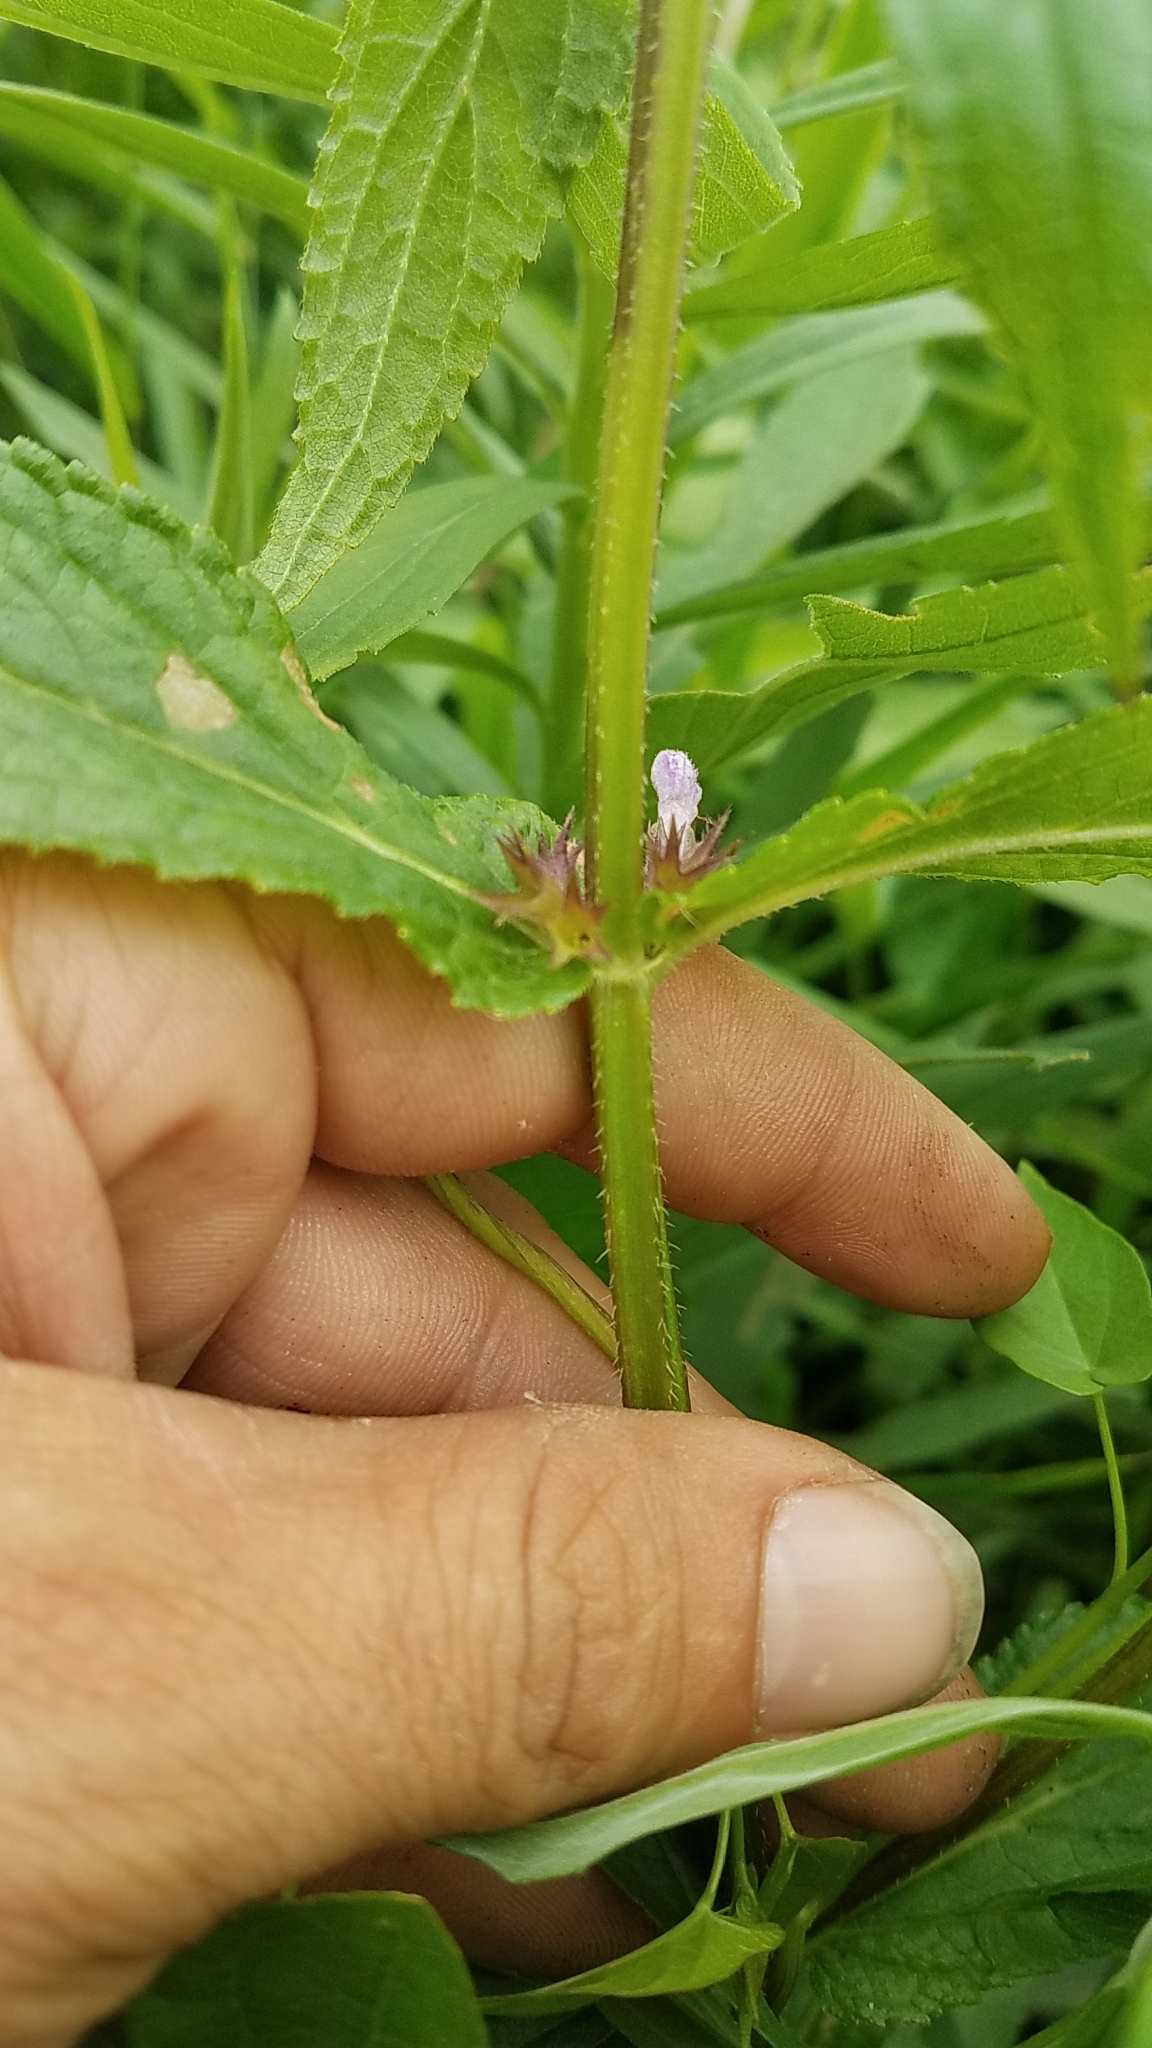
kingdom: Plantae
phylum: Tracheophyta
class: Magnoliopsida
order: Lamiales
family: Lamiaceae
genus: Stachys
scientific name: Stachys hispida
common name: Hispid hedge-nettle
